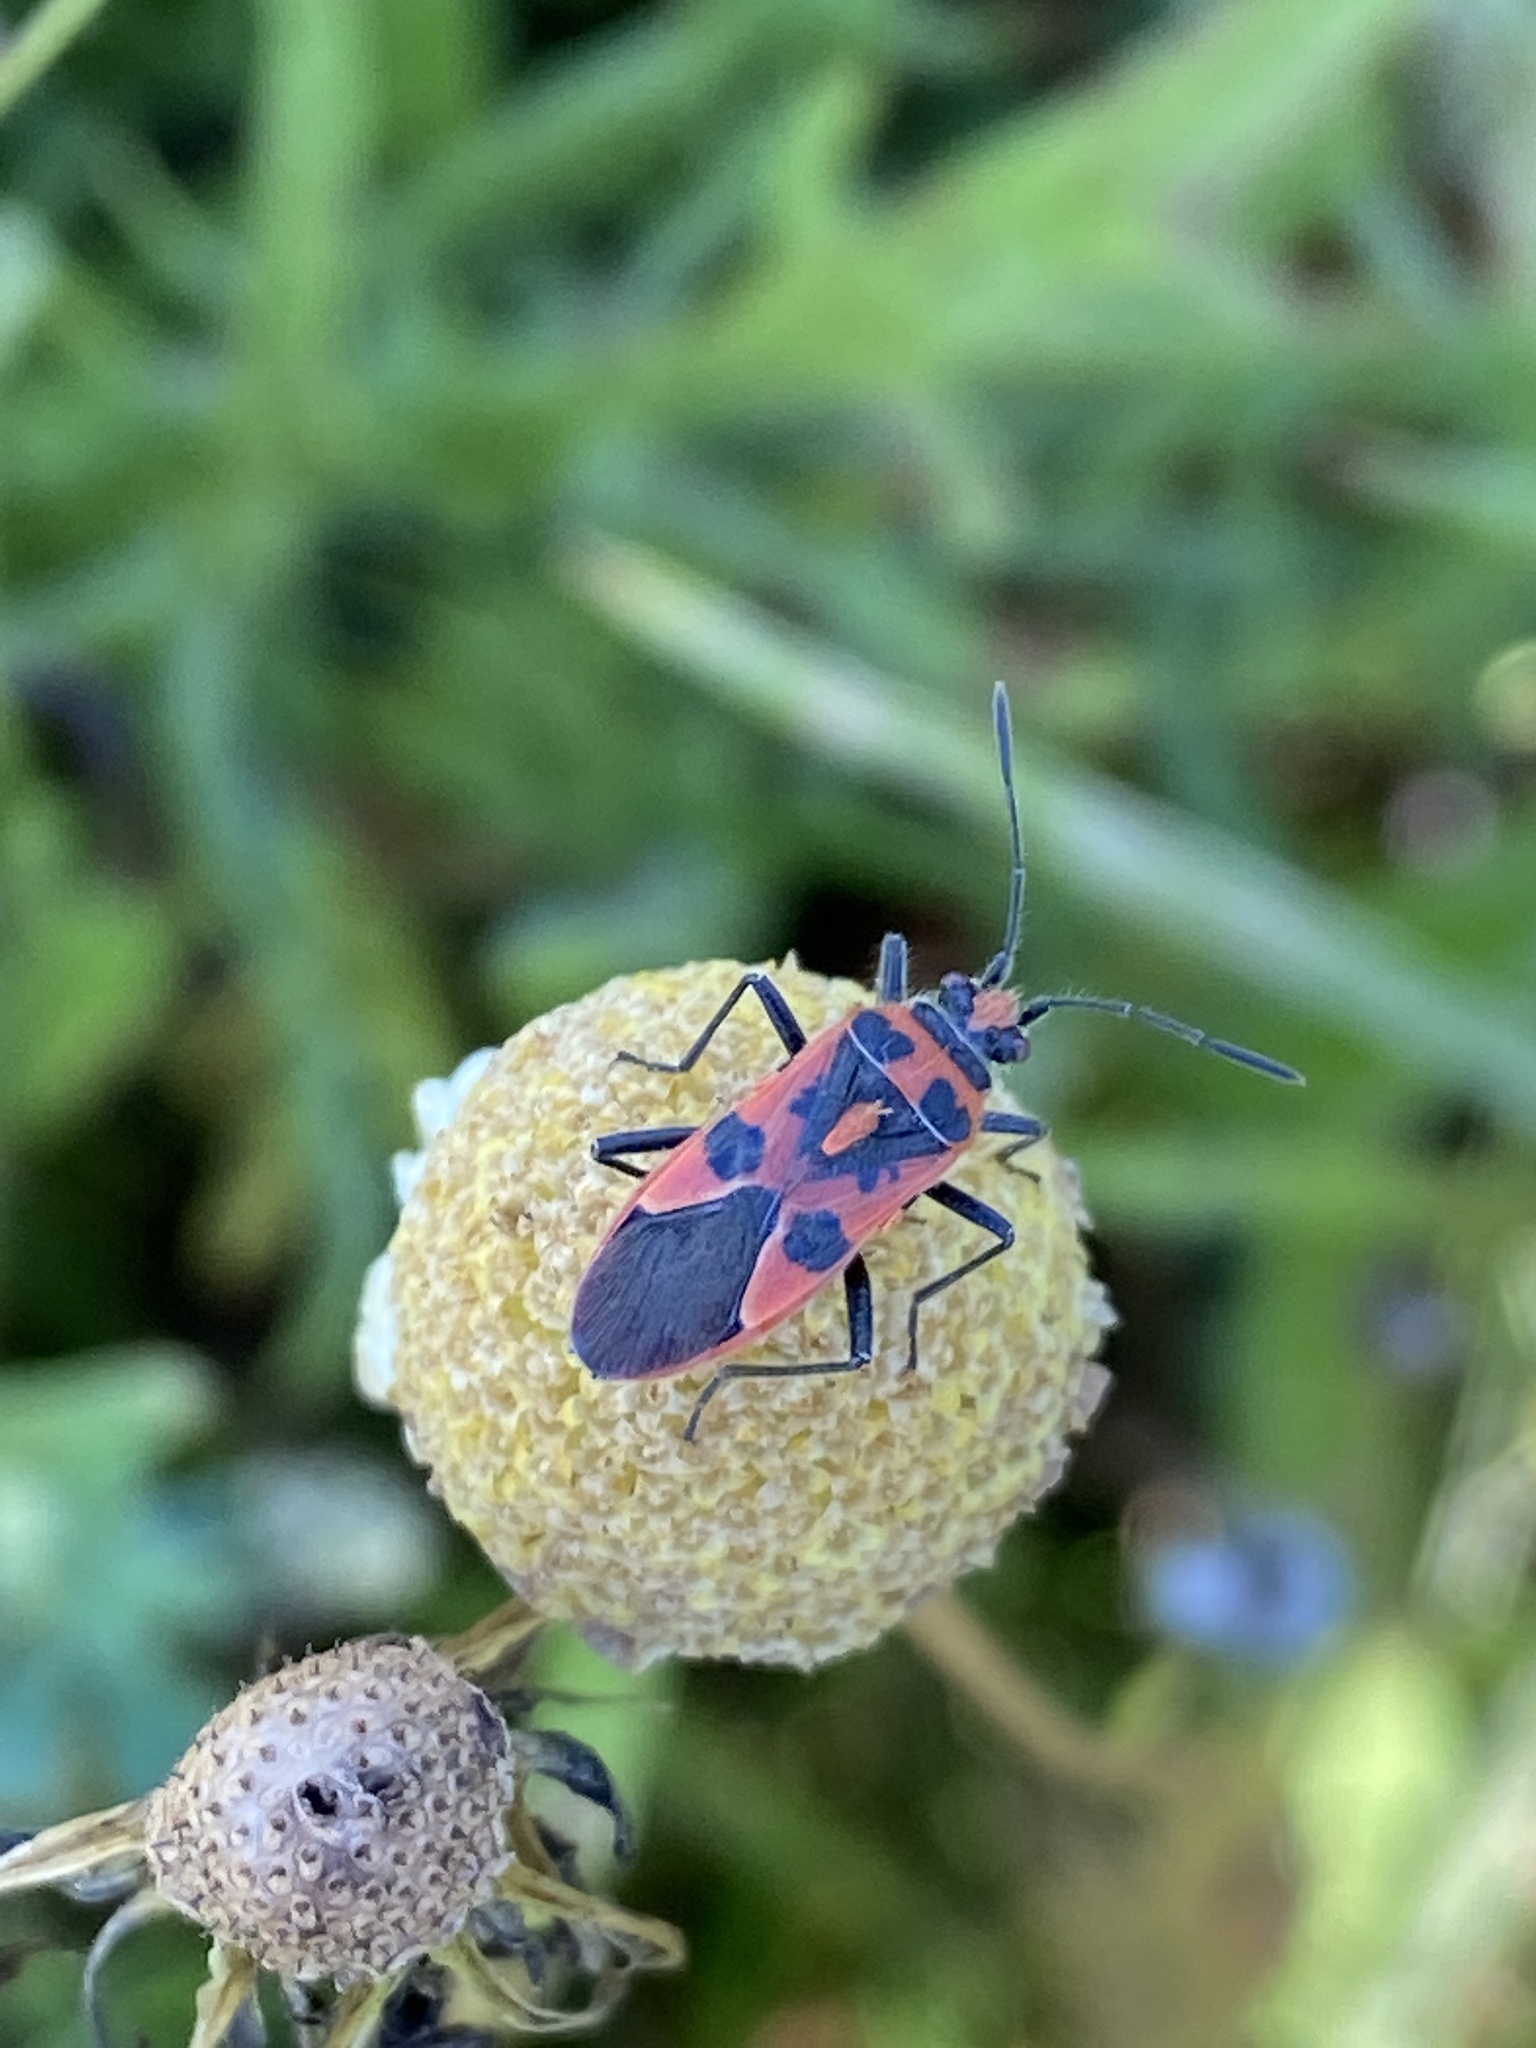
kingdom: Animalia
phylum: Arthropoda
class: Insecta
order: Hemiptera
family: Rhopalidae
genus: Corizus
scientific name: Corizus hyoscyami
